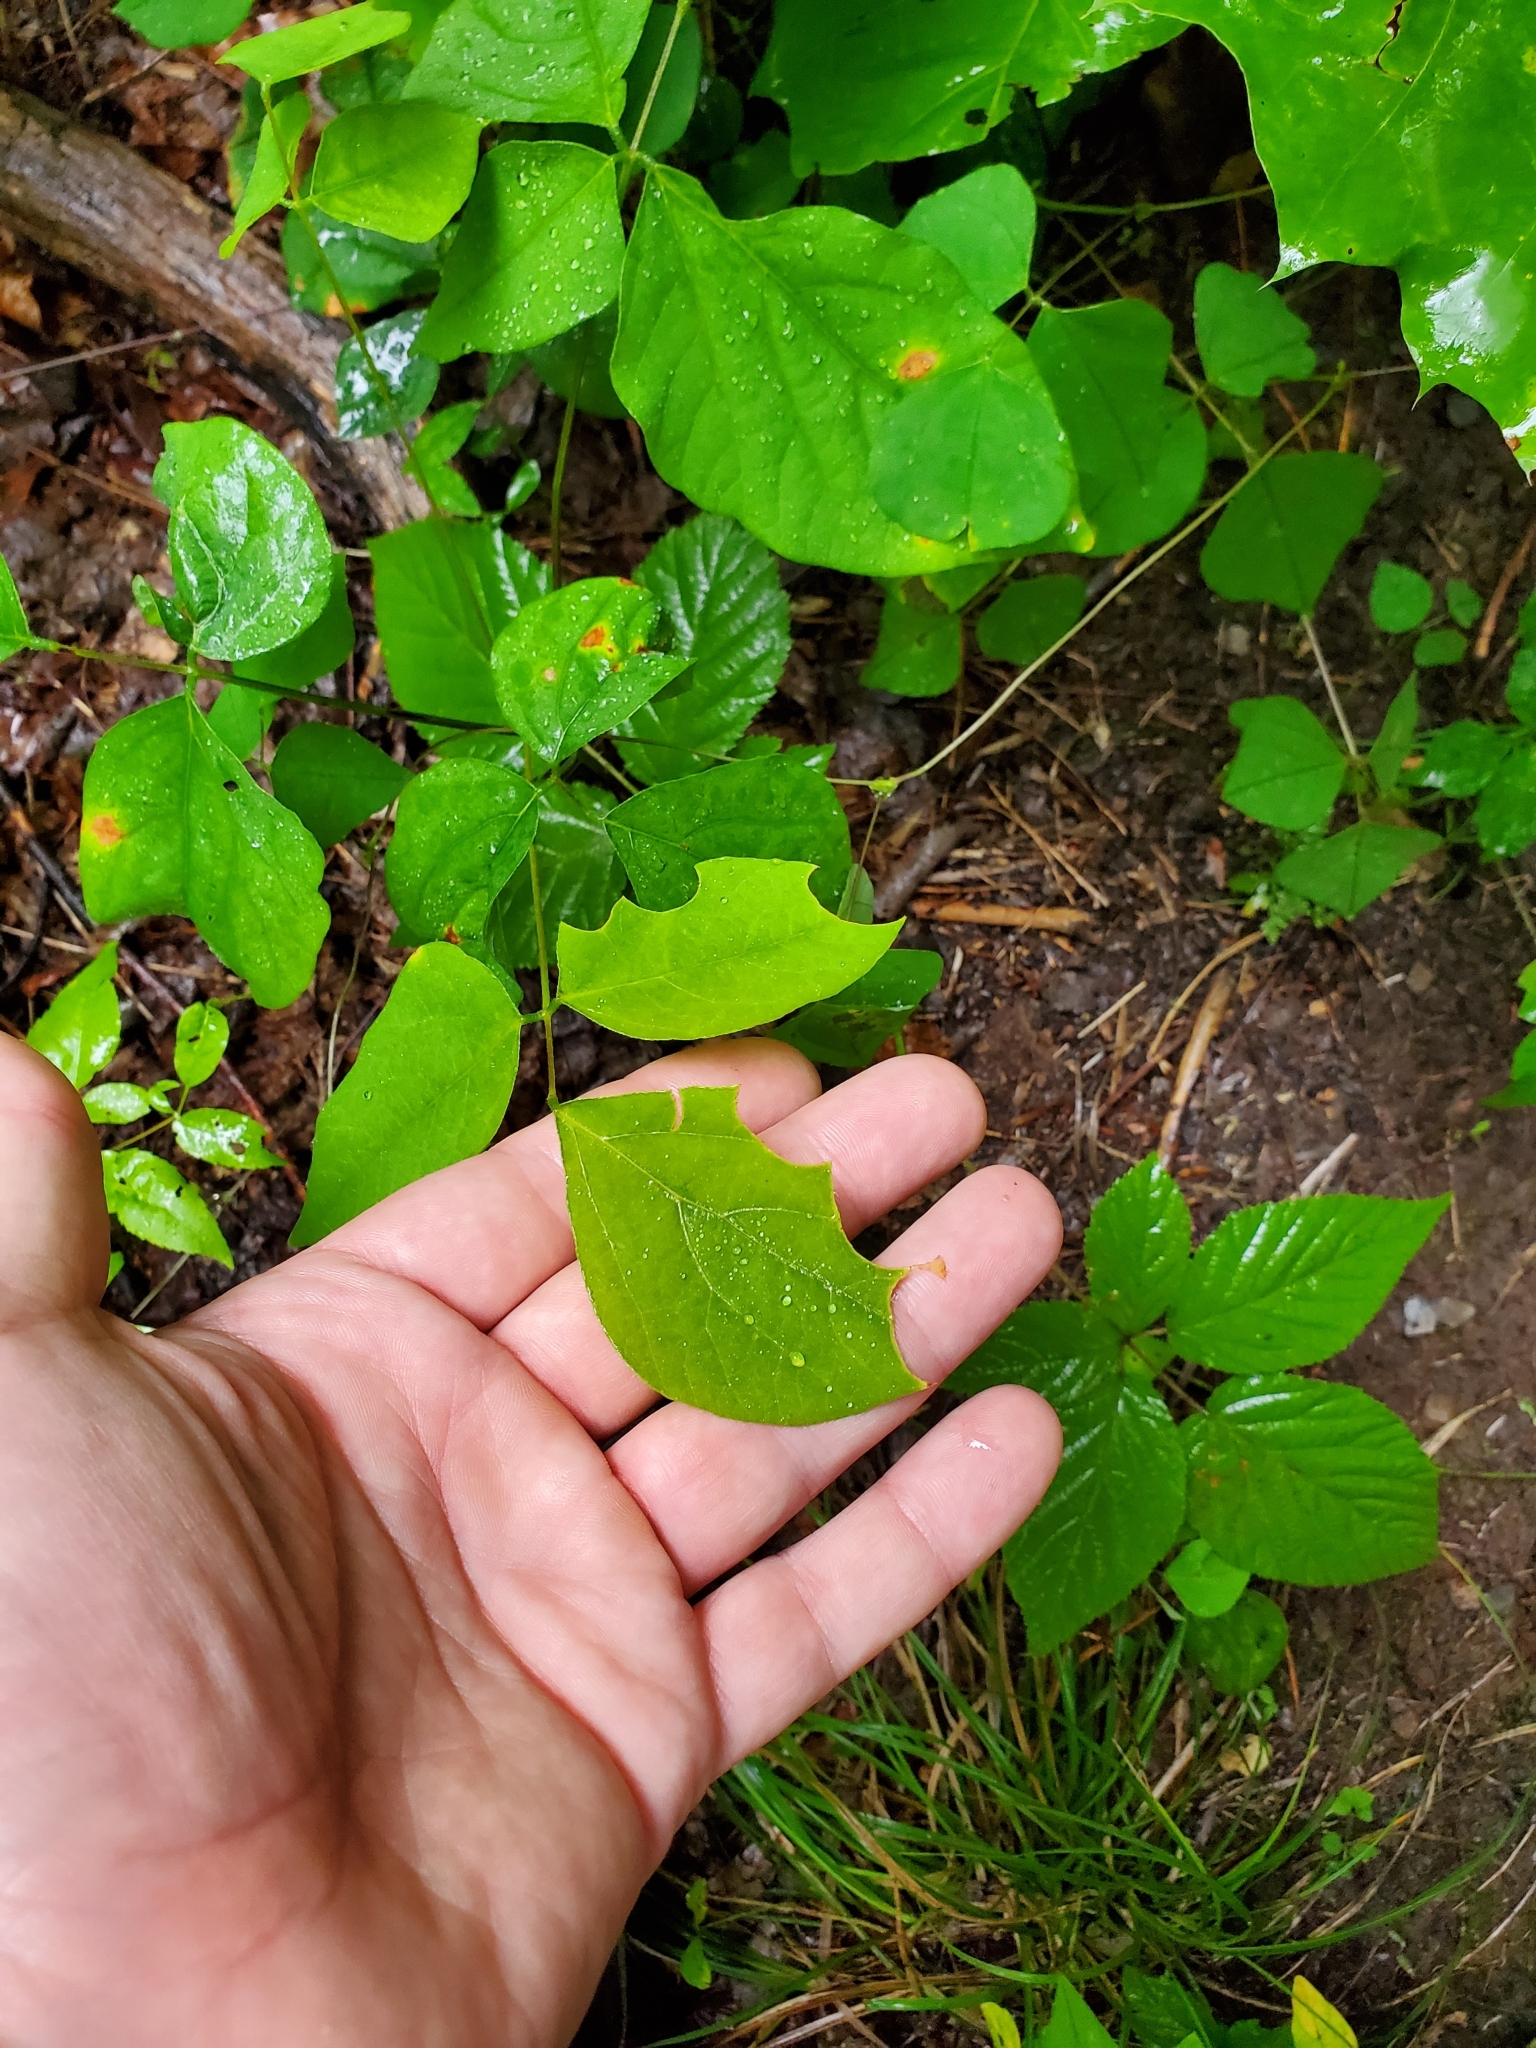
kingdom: Plantae
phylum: Tracheophyta
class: Magnoliopsida
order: Fabales
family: Fabaceae
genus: Hylodesmum
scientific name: Hylodesmum nudiflorum
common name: Bare-stemmed tick-trefoil
